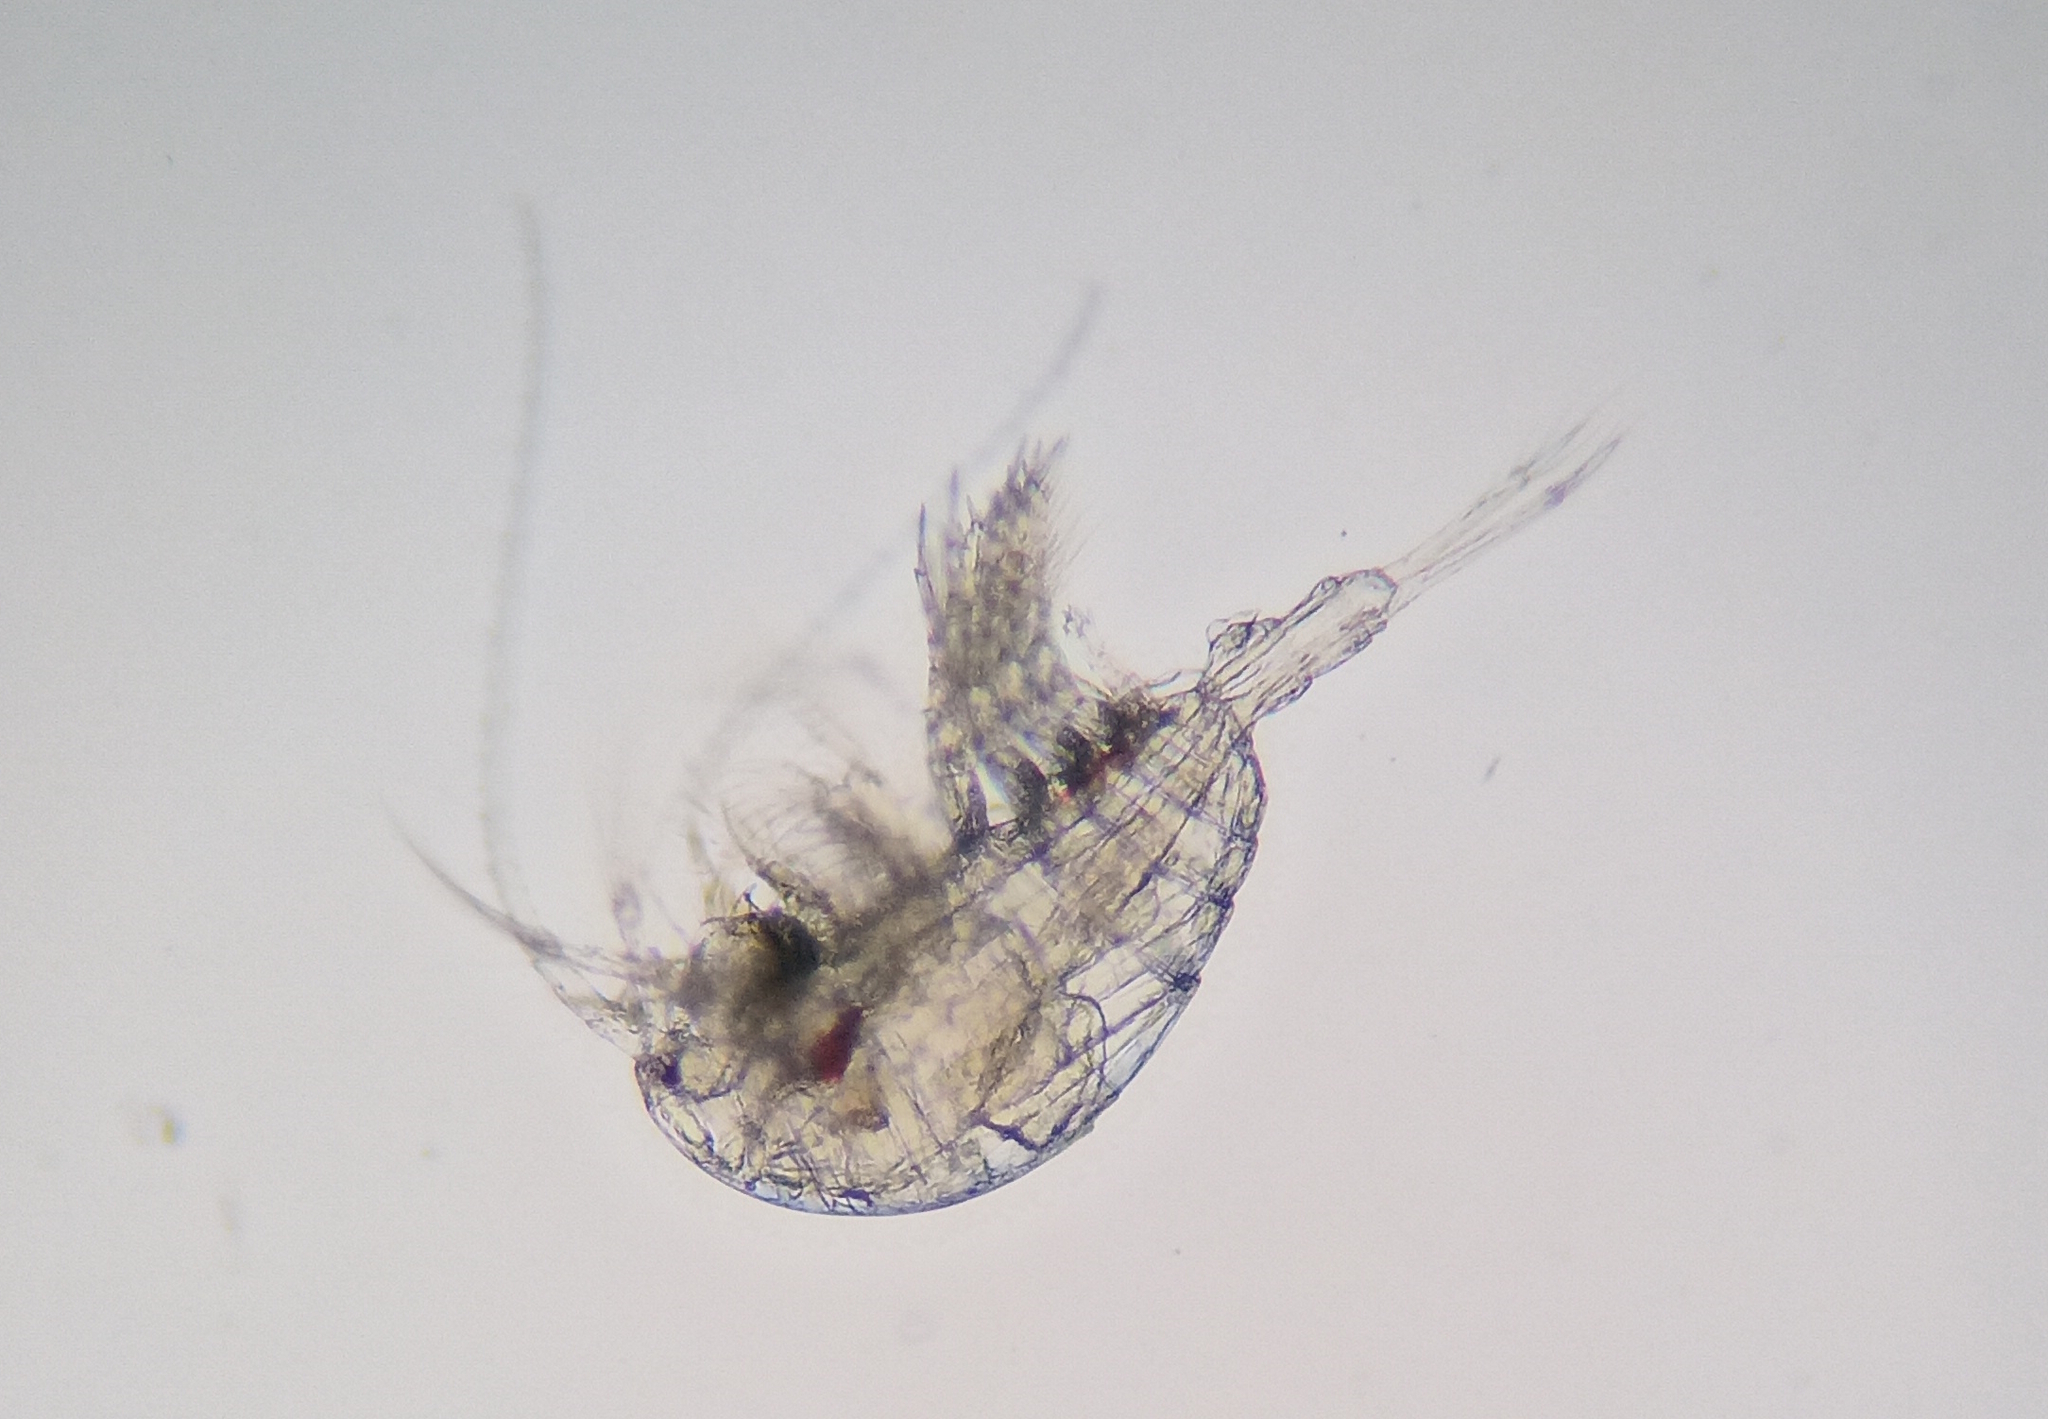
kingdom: Animalia
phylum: Arthropoda
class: Copepoda
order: Calanoida
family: Temoridae
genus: Temora
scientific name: Temora turbinata
